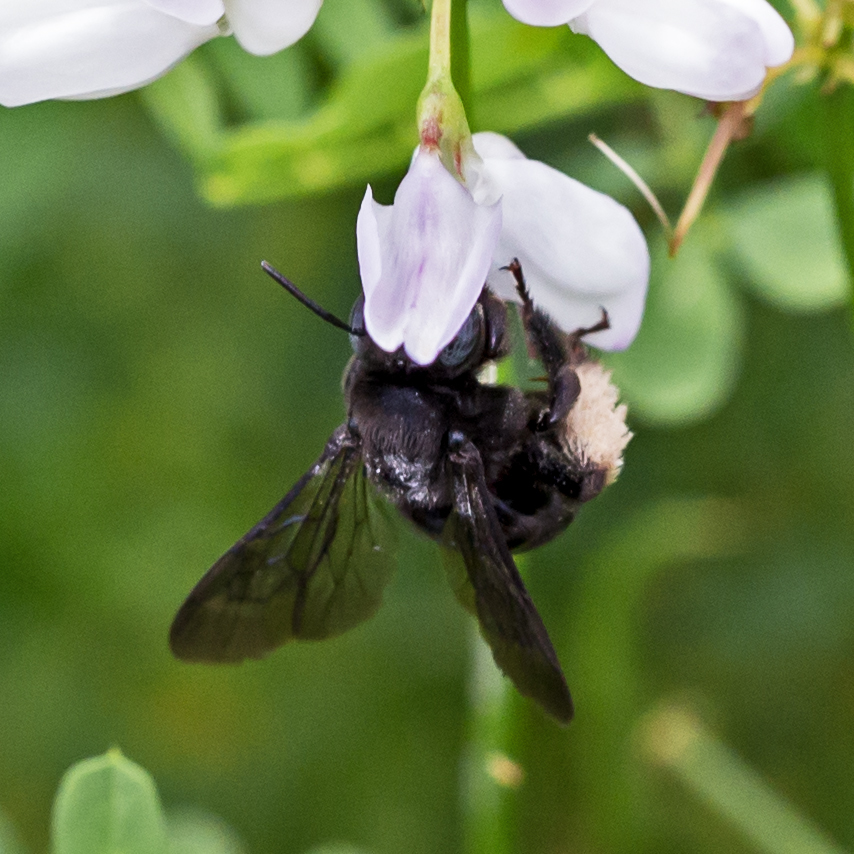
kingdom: Animalia
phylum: Arthropoda
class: Insecta
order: Hymenoptera
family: Apidae
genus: Melissodes
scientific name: Melissodes bimaculatus
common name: Two-spotted long-horned bee
